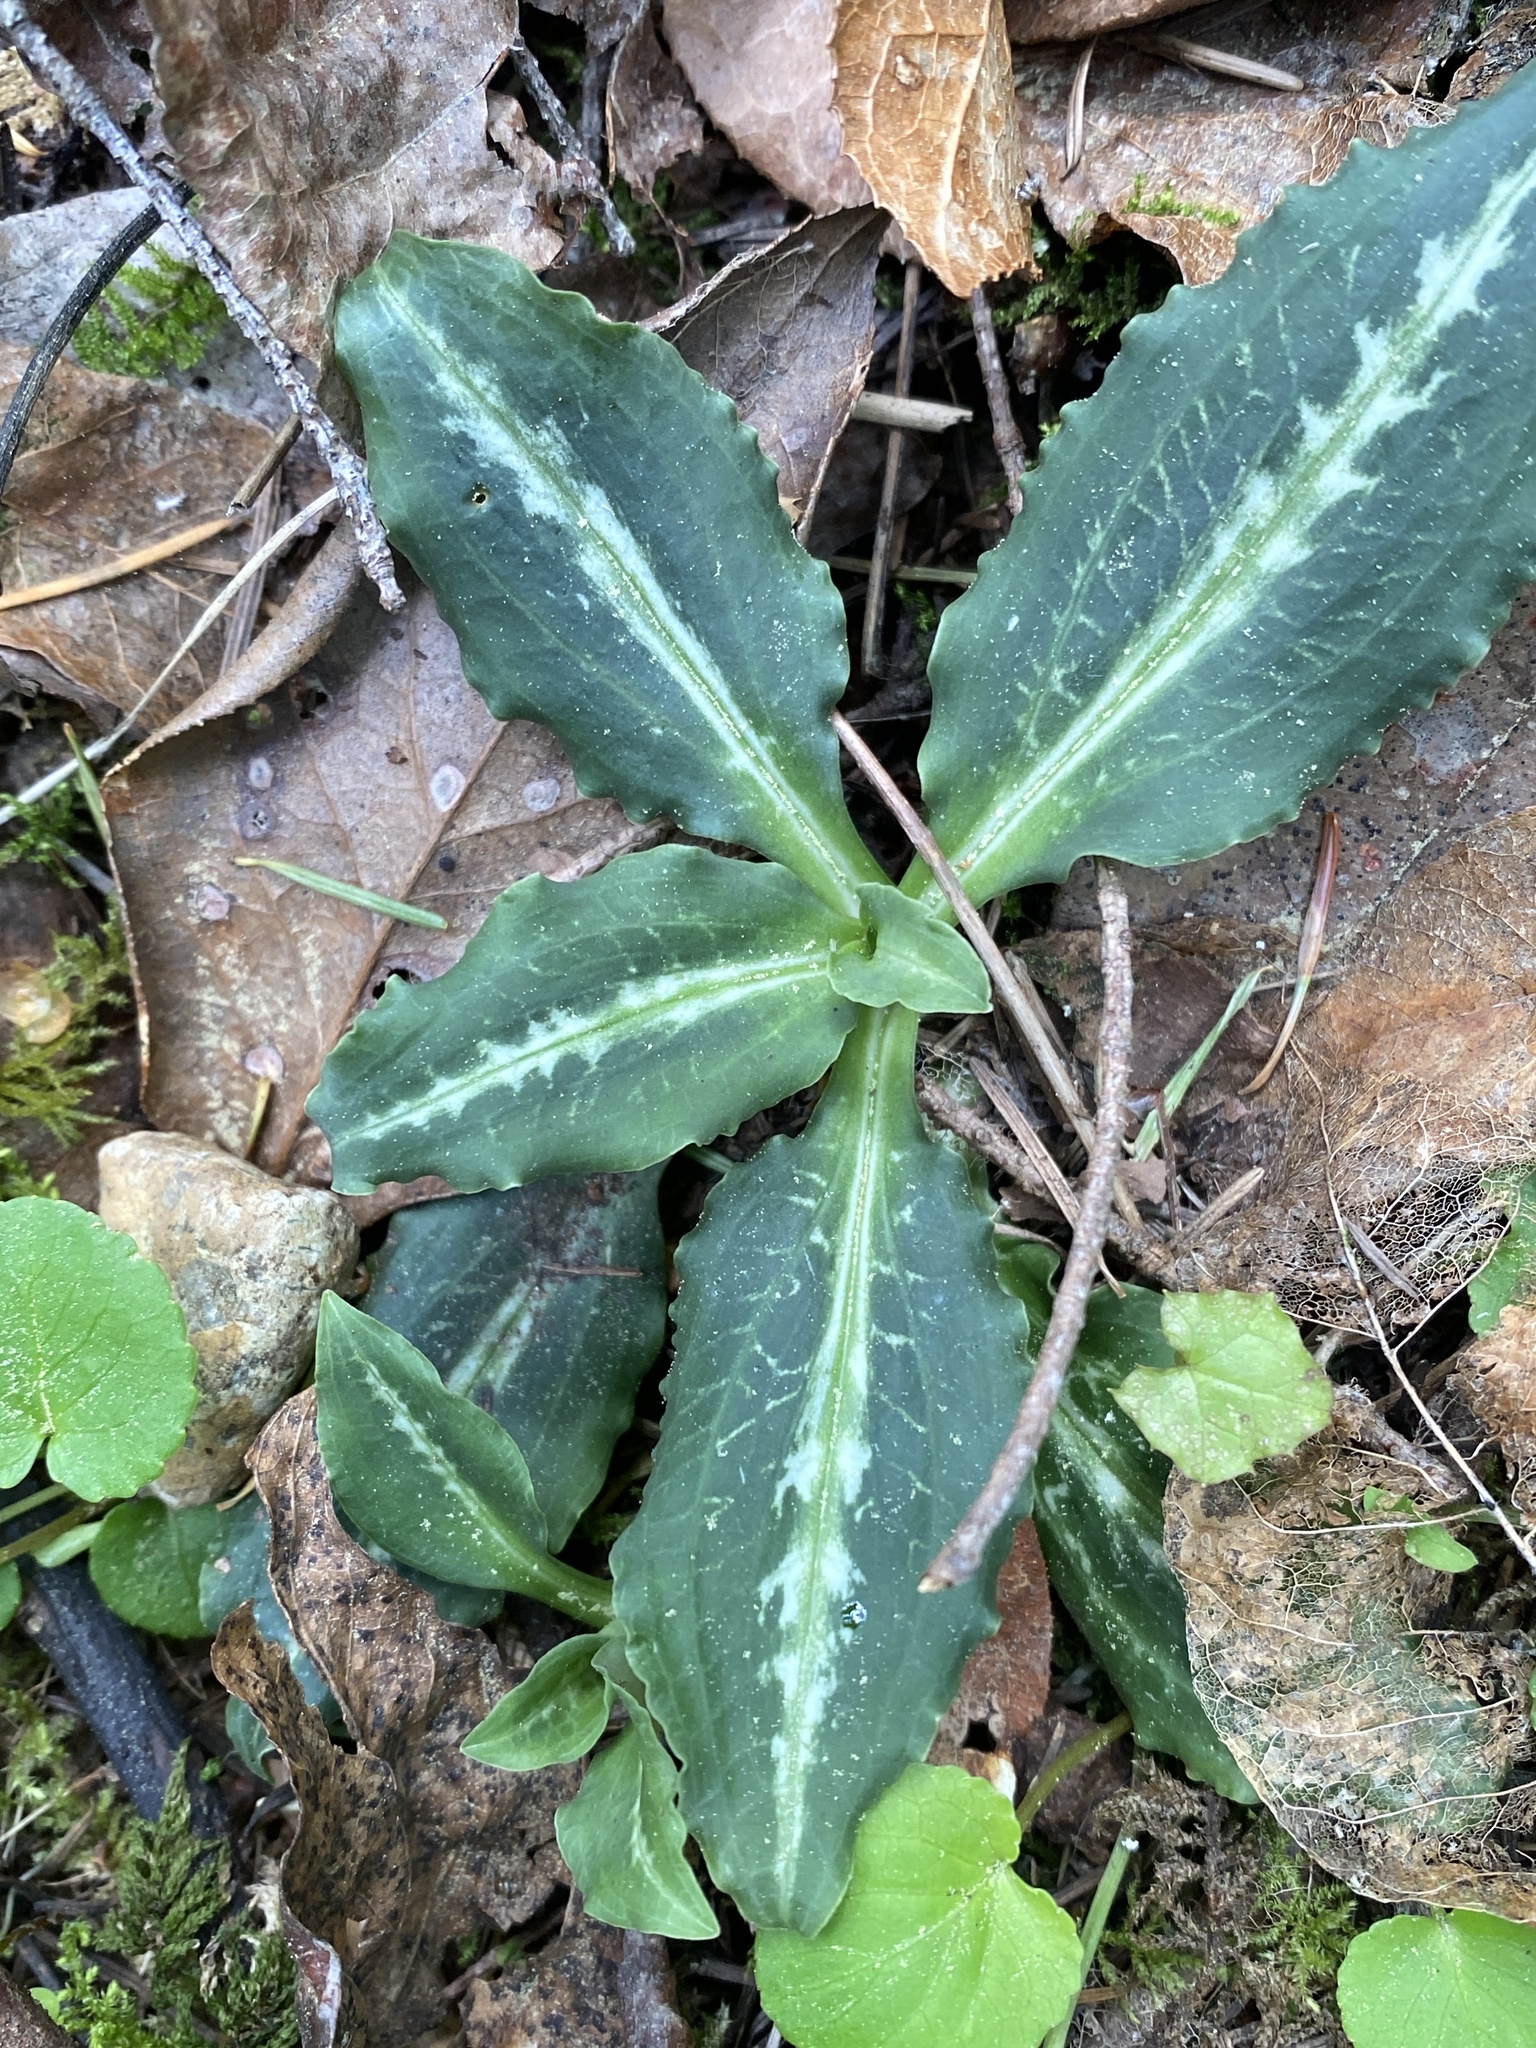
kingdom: Plantae
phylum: Tracheophyta
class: Liliopsida
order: Asparagales
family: Orchidaceae
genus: Goodyera
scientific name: Goodyera oblongifolia
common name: Giant rattlesnake-plantain
